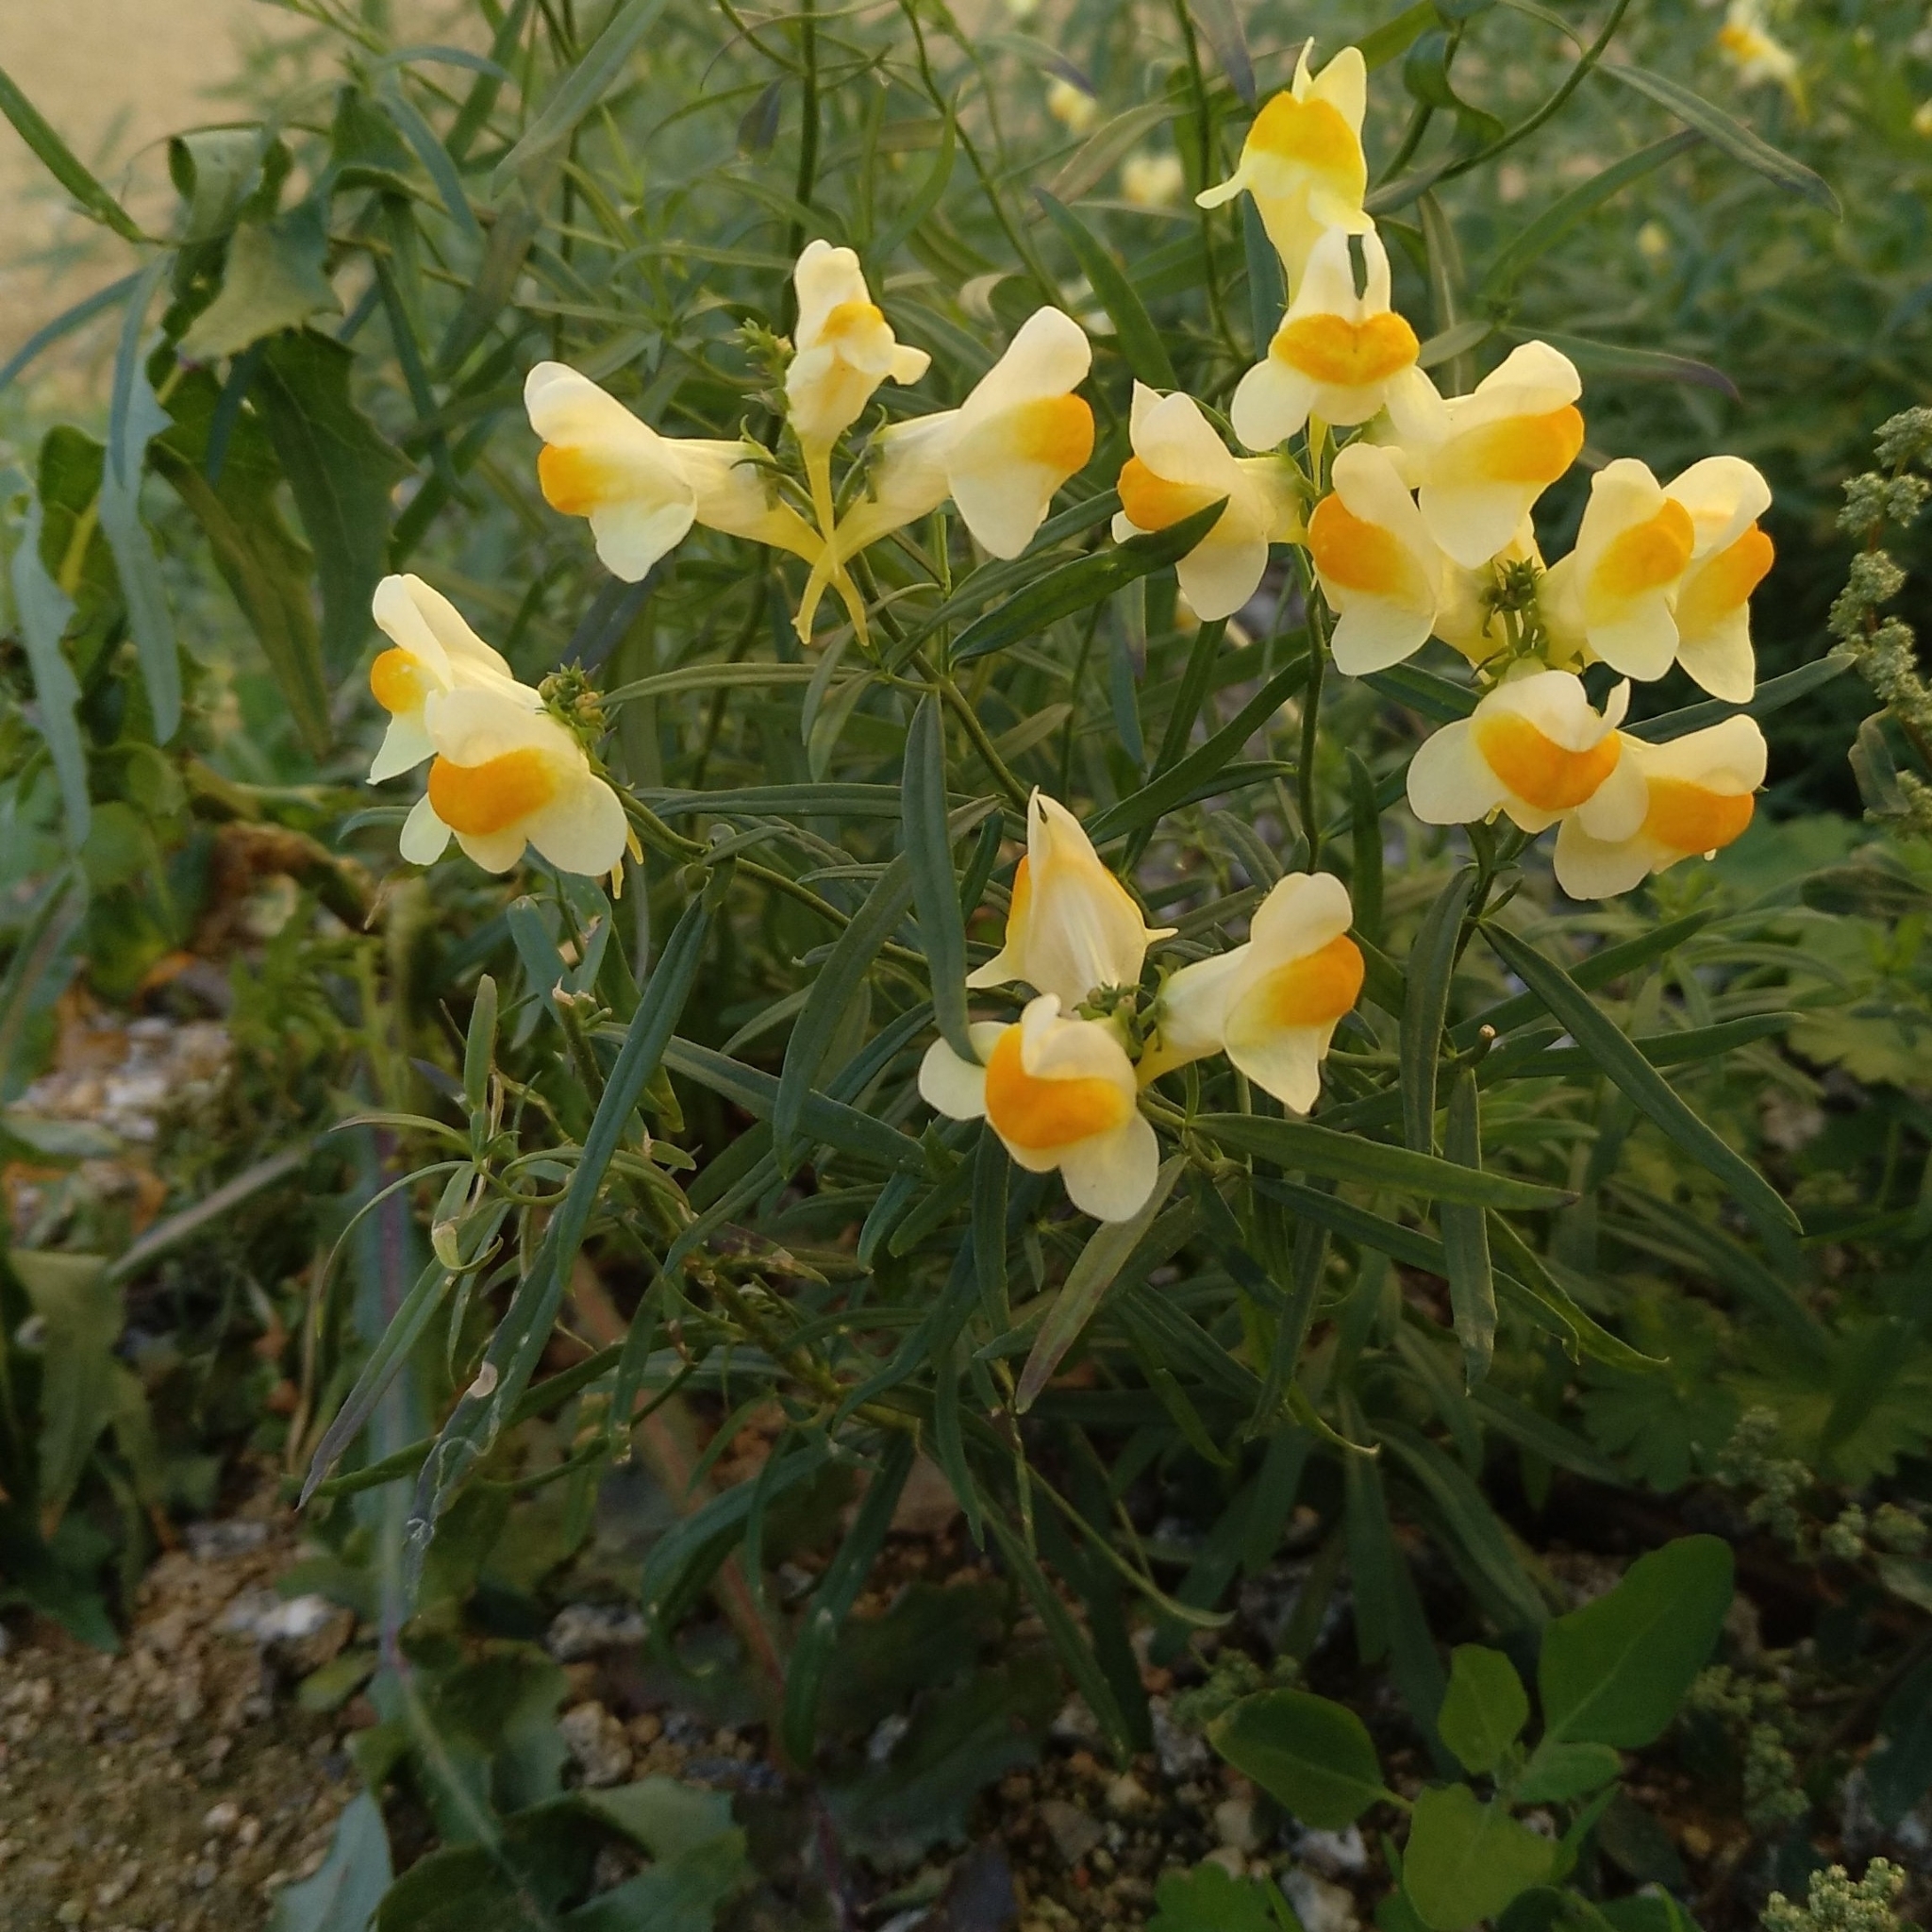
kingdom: Plantae
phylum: Tracheophyta
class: Magnoliopsida
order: Lamiales
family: Plantaginaceae
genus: Linaria
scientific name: Linaria vulgaris
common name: Butter and eggs
